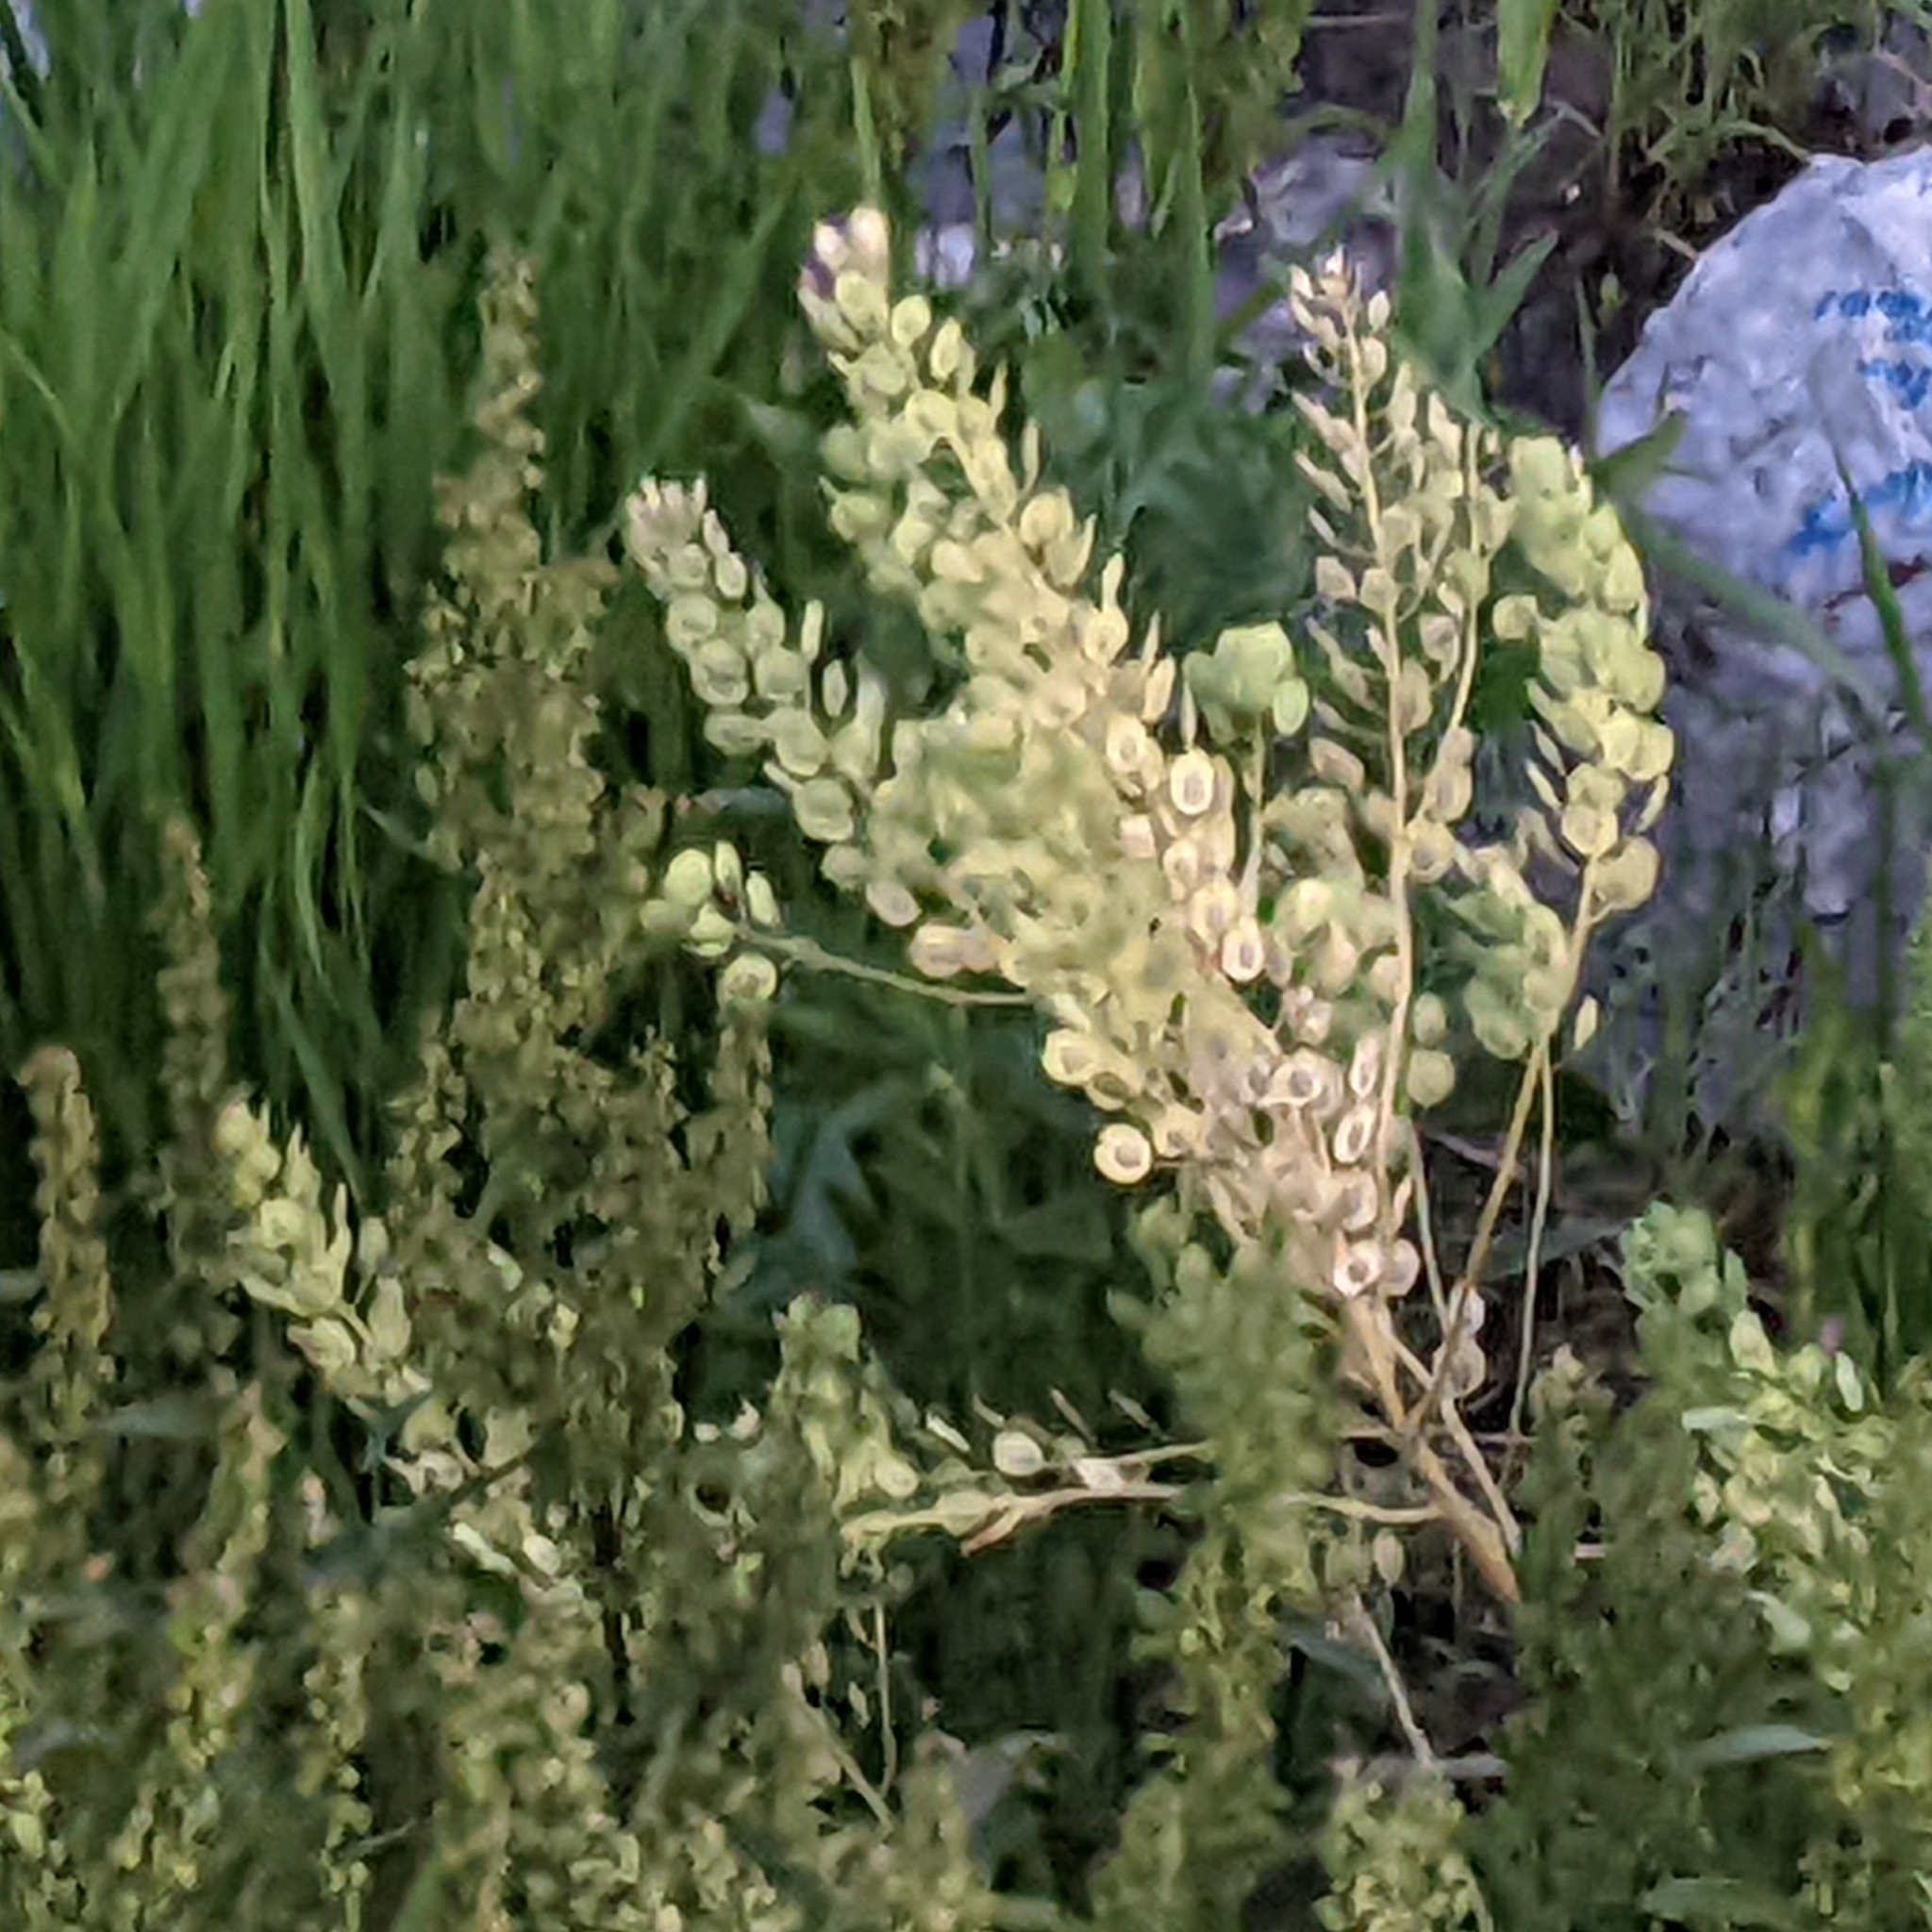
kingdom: Plantae
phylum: Tracheophyta
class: Magnoliopsida
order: Brassicales
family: Brassicaceae
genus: Thlaspi
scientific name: Thlaspi arvense
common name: Field pennycress
